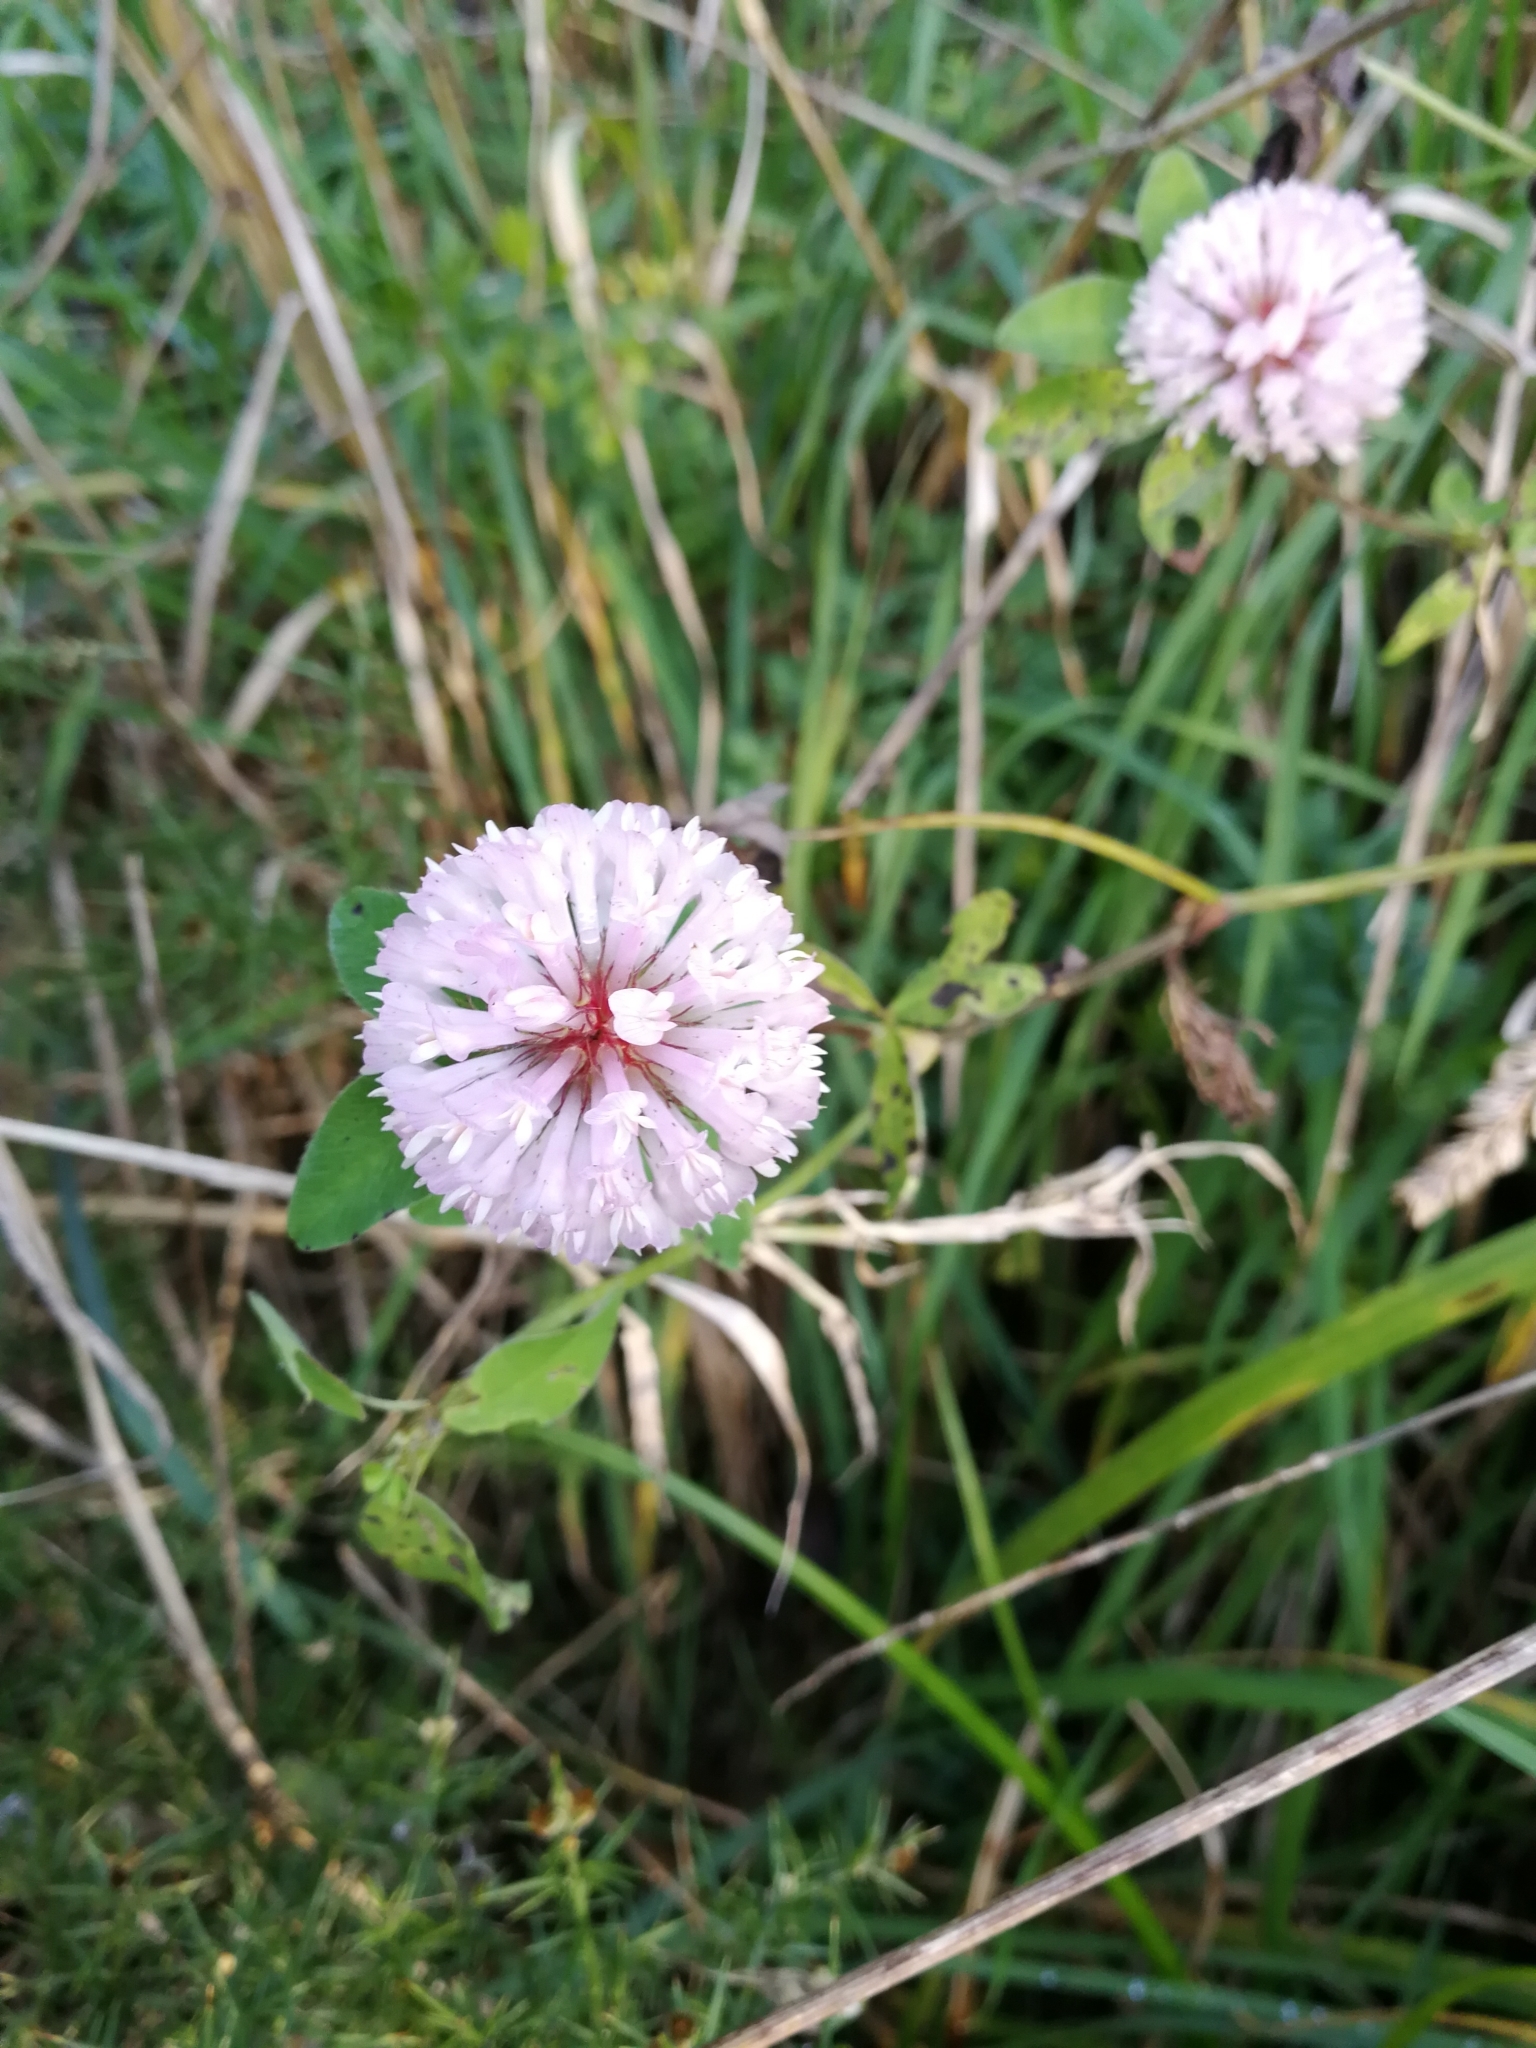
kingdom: Plantae
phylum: Tracheophyta
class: Magnoliopsida
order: Fabales
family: Fabaceae
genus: Trifolium
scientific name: Trifolium pratense
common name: Red clover
